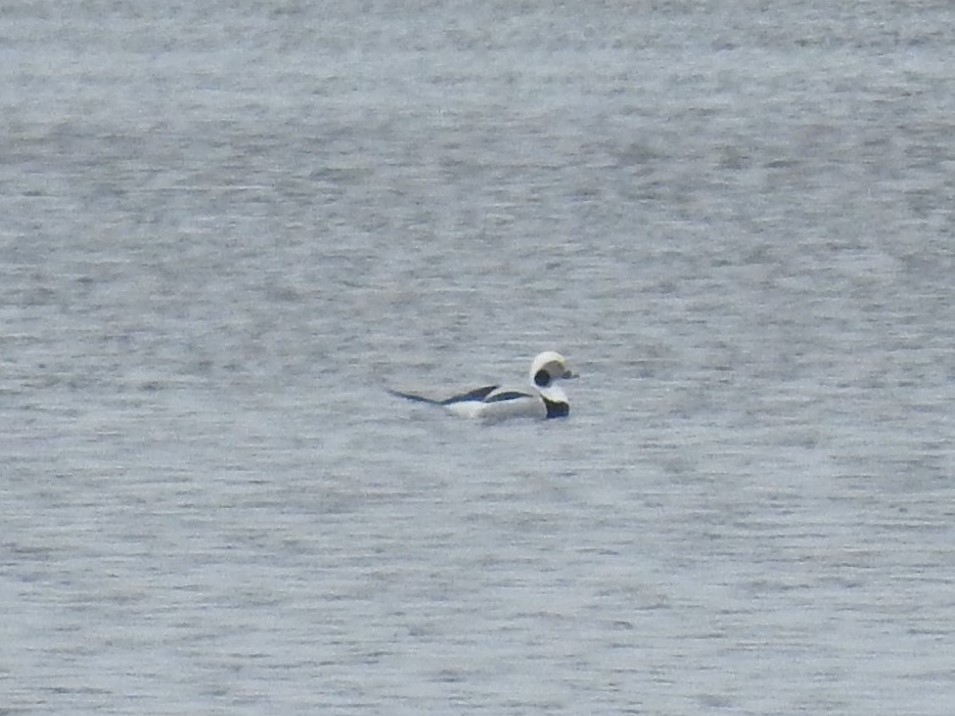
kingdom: Animalia
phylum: Chordata
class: Aves
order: Anseriformes
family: Anatidae
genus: Clangula
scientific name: Clangula hyemalis
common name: Long-tailed duck
